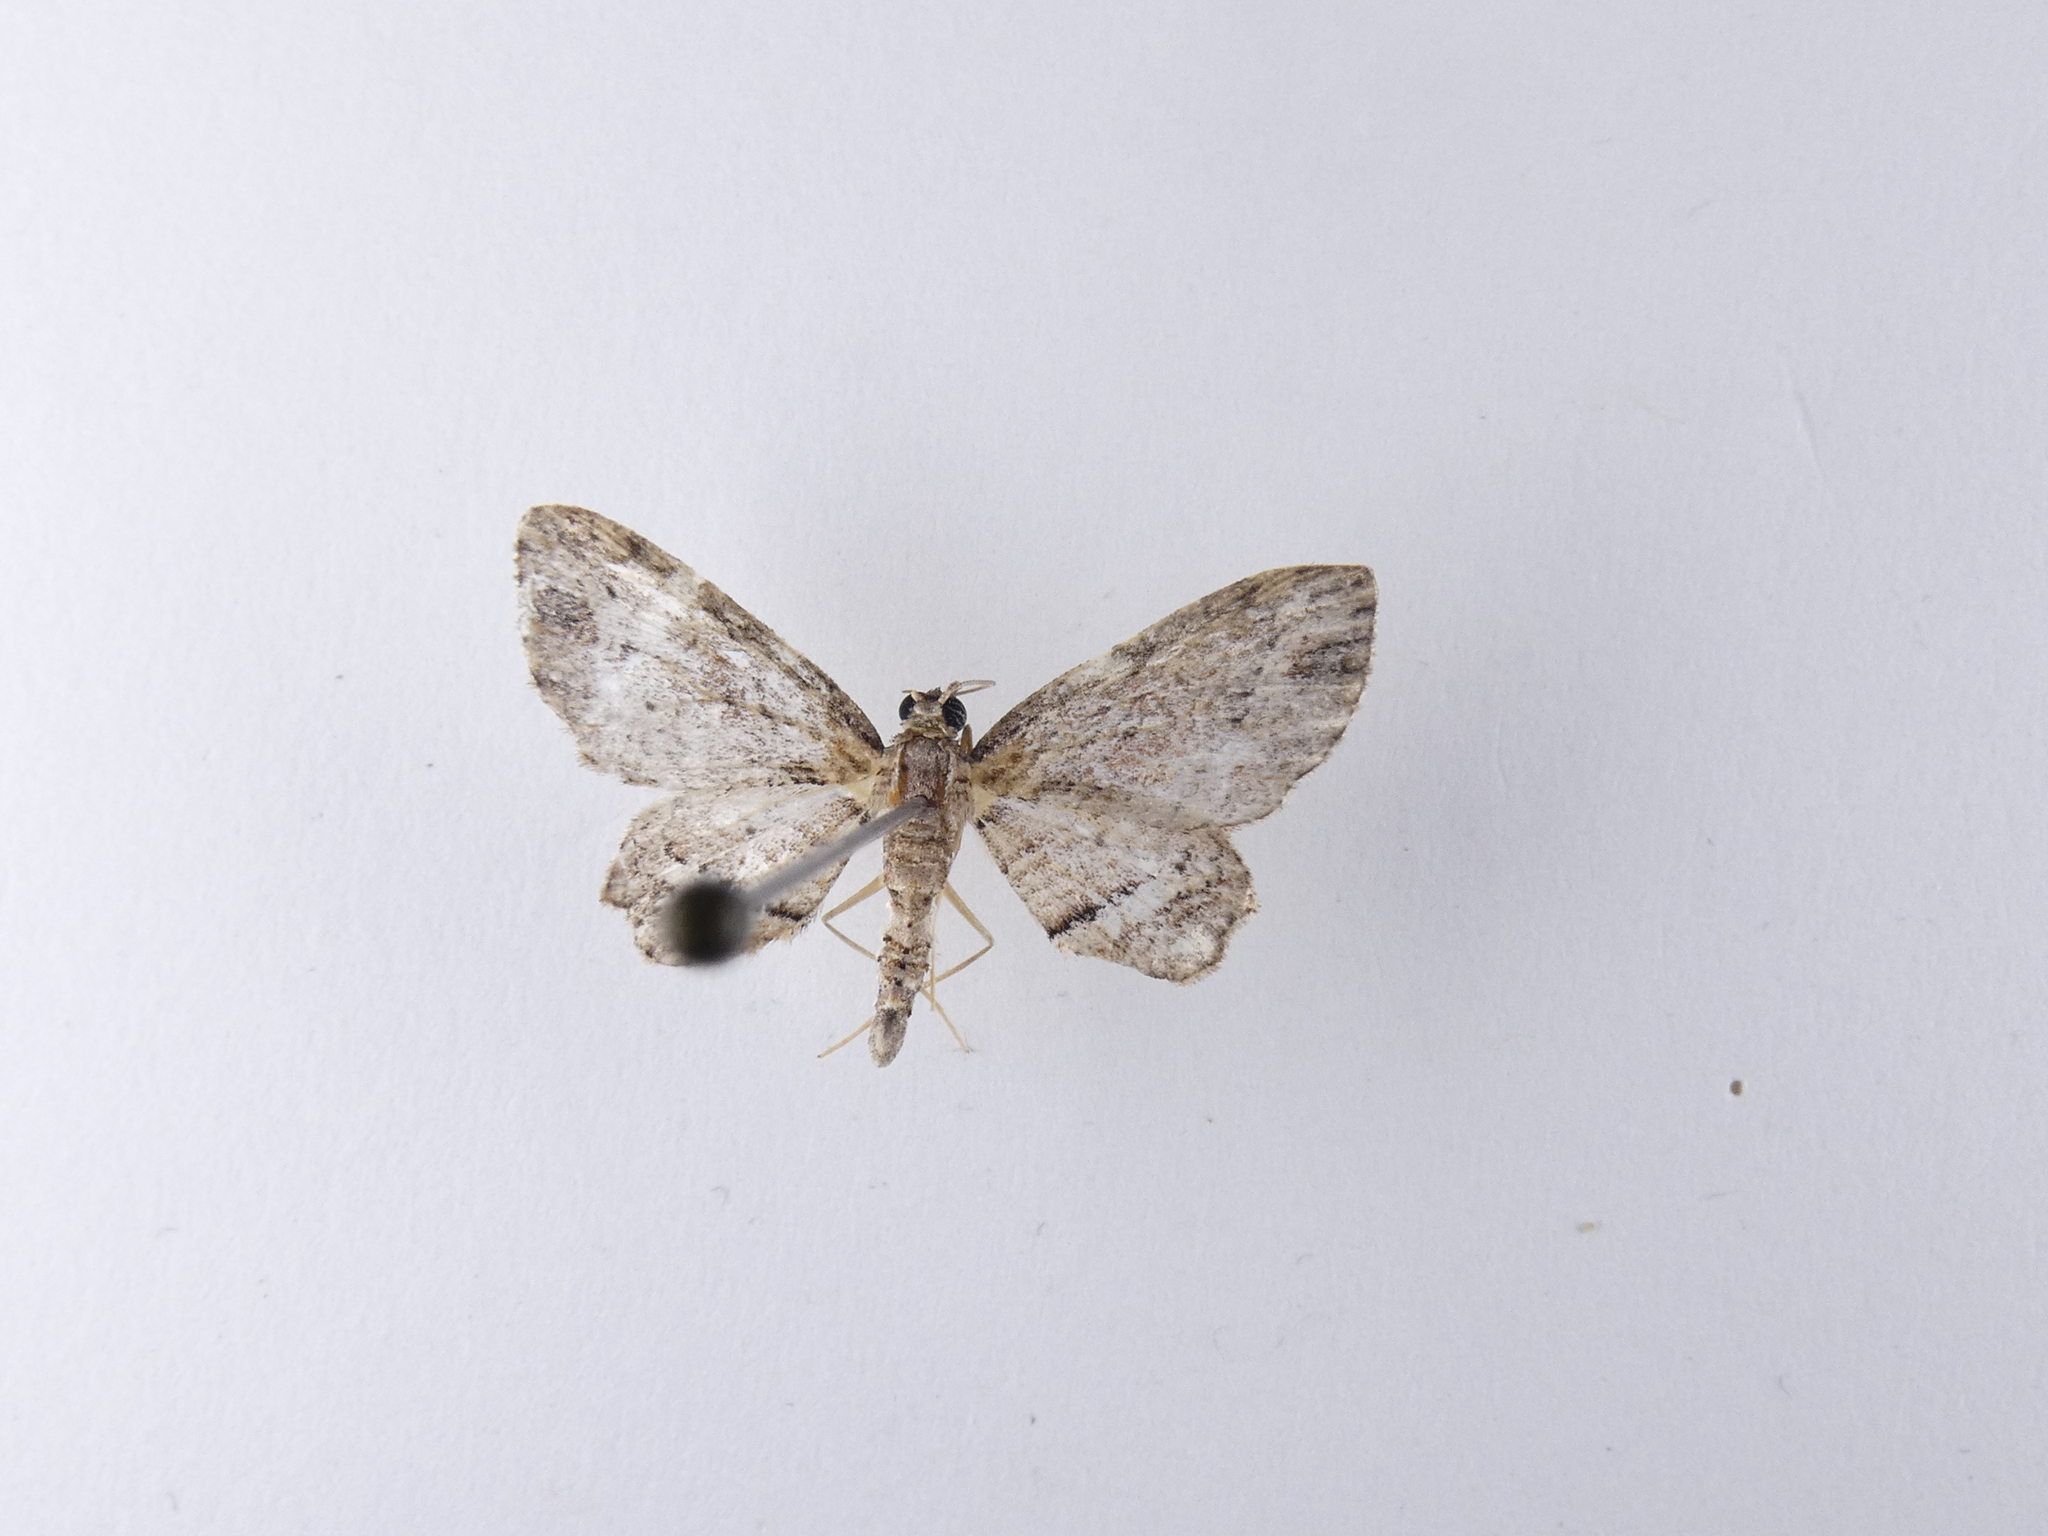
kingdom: Animalia
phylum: Arthropoda
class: Insecta
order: Lepidoptera
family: Geometridae
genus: Chloroclystis
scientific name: Chloroclystis filata
